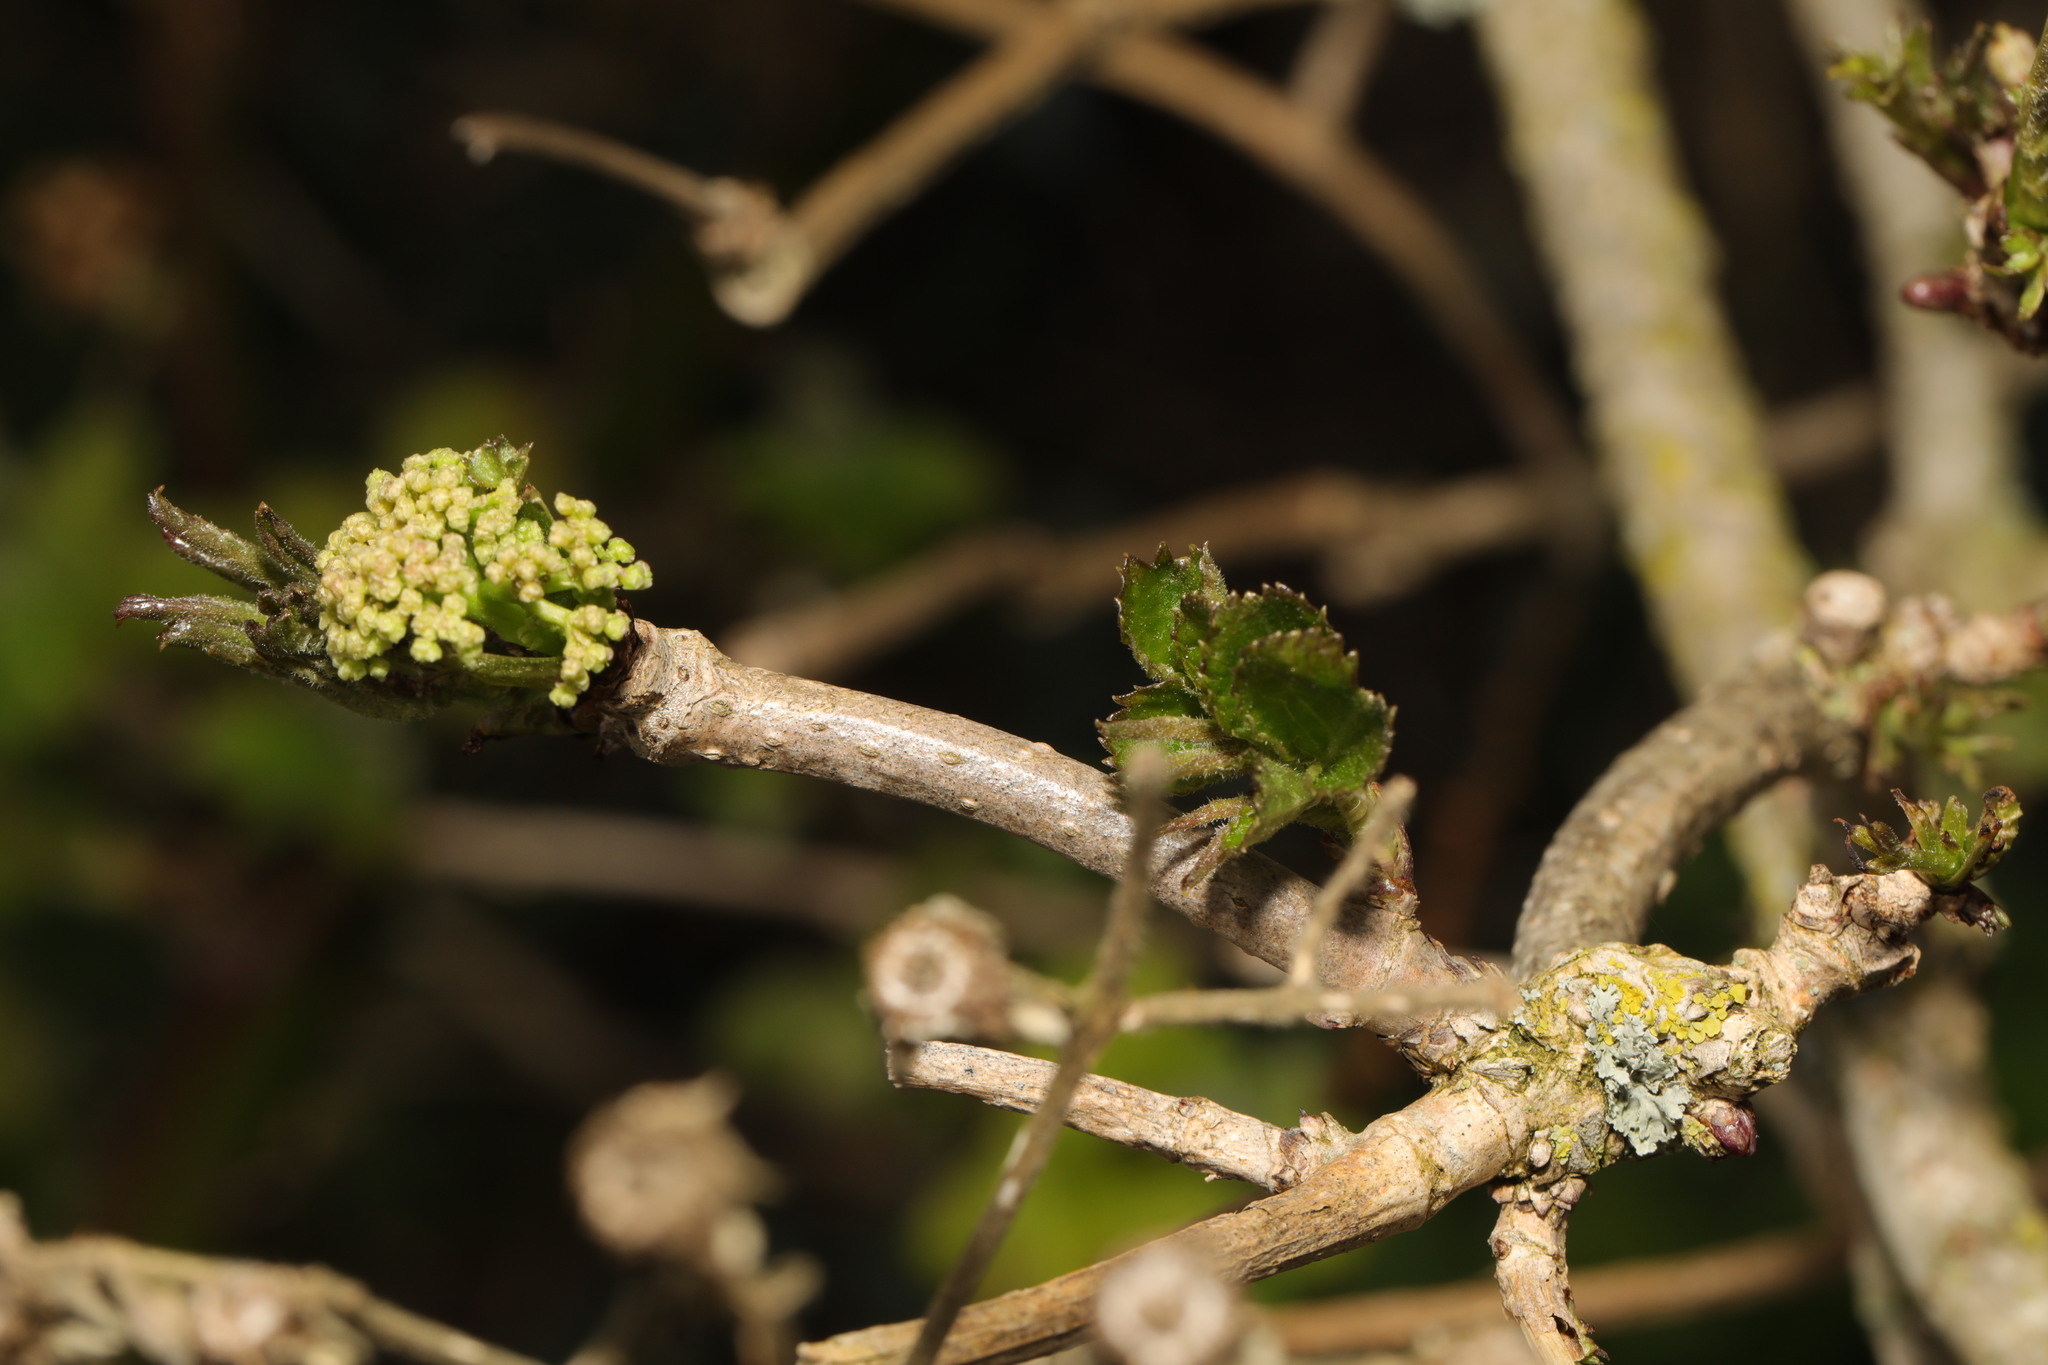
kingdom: Plantae
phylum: Tracheophyta
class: Magnoliopsida
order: Dipsacales
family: Viburnaceae
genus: Sambucus
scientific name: Sambucus nigra
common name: Elder
